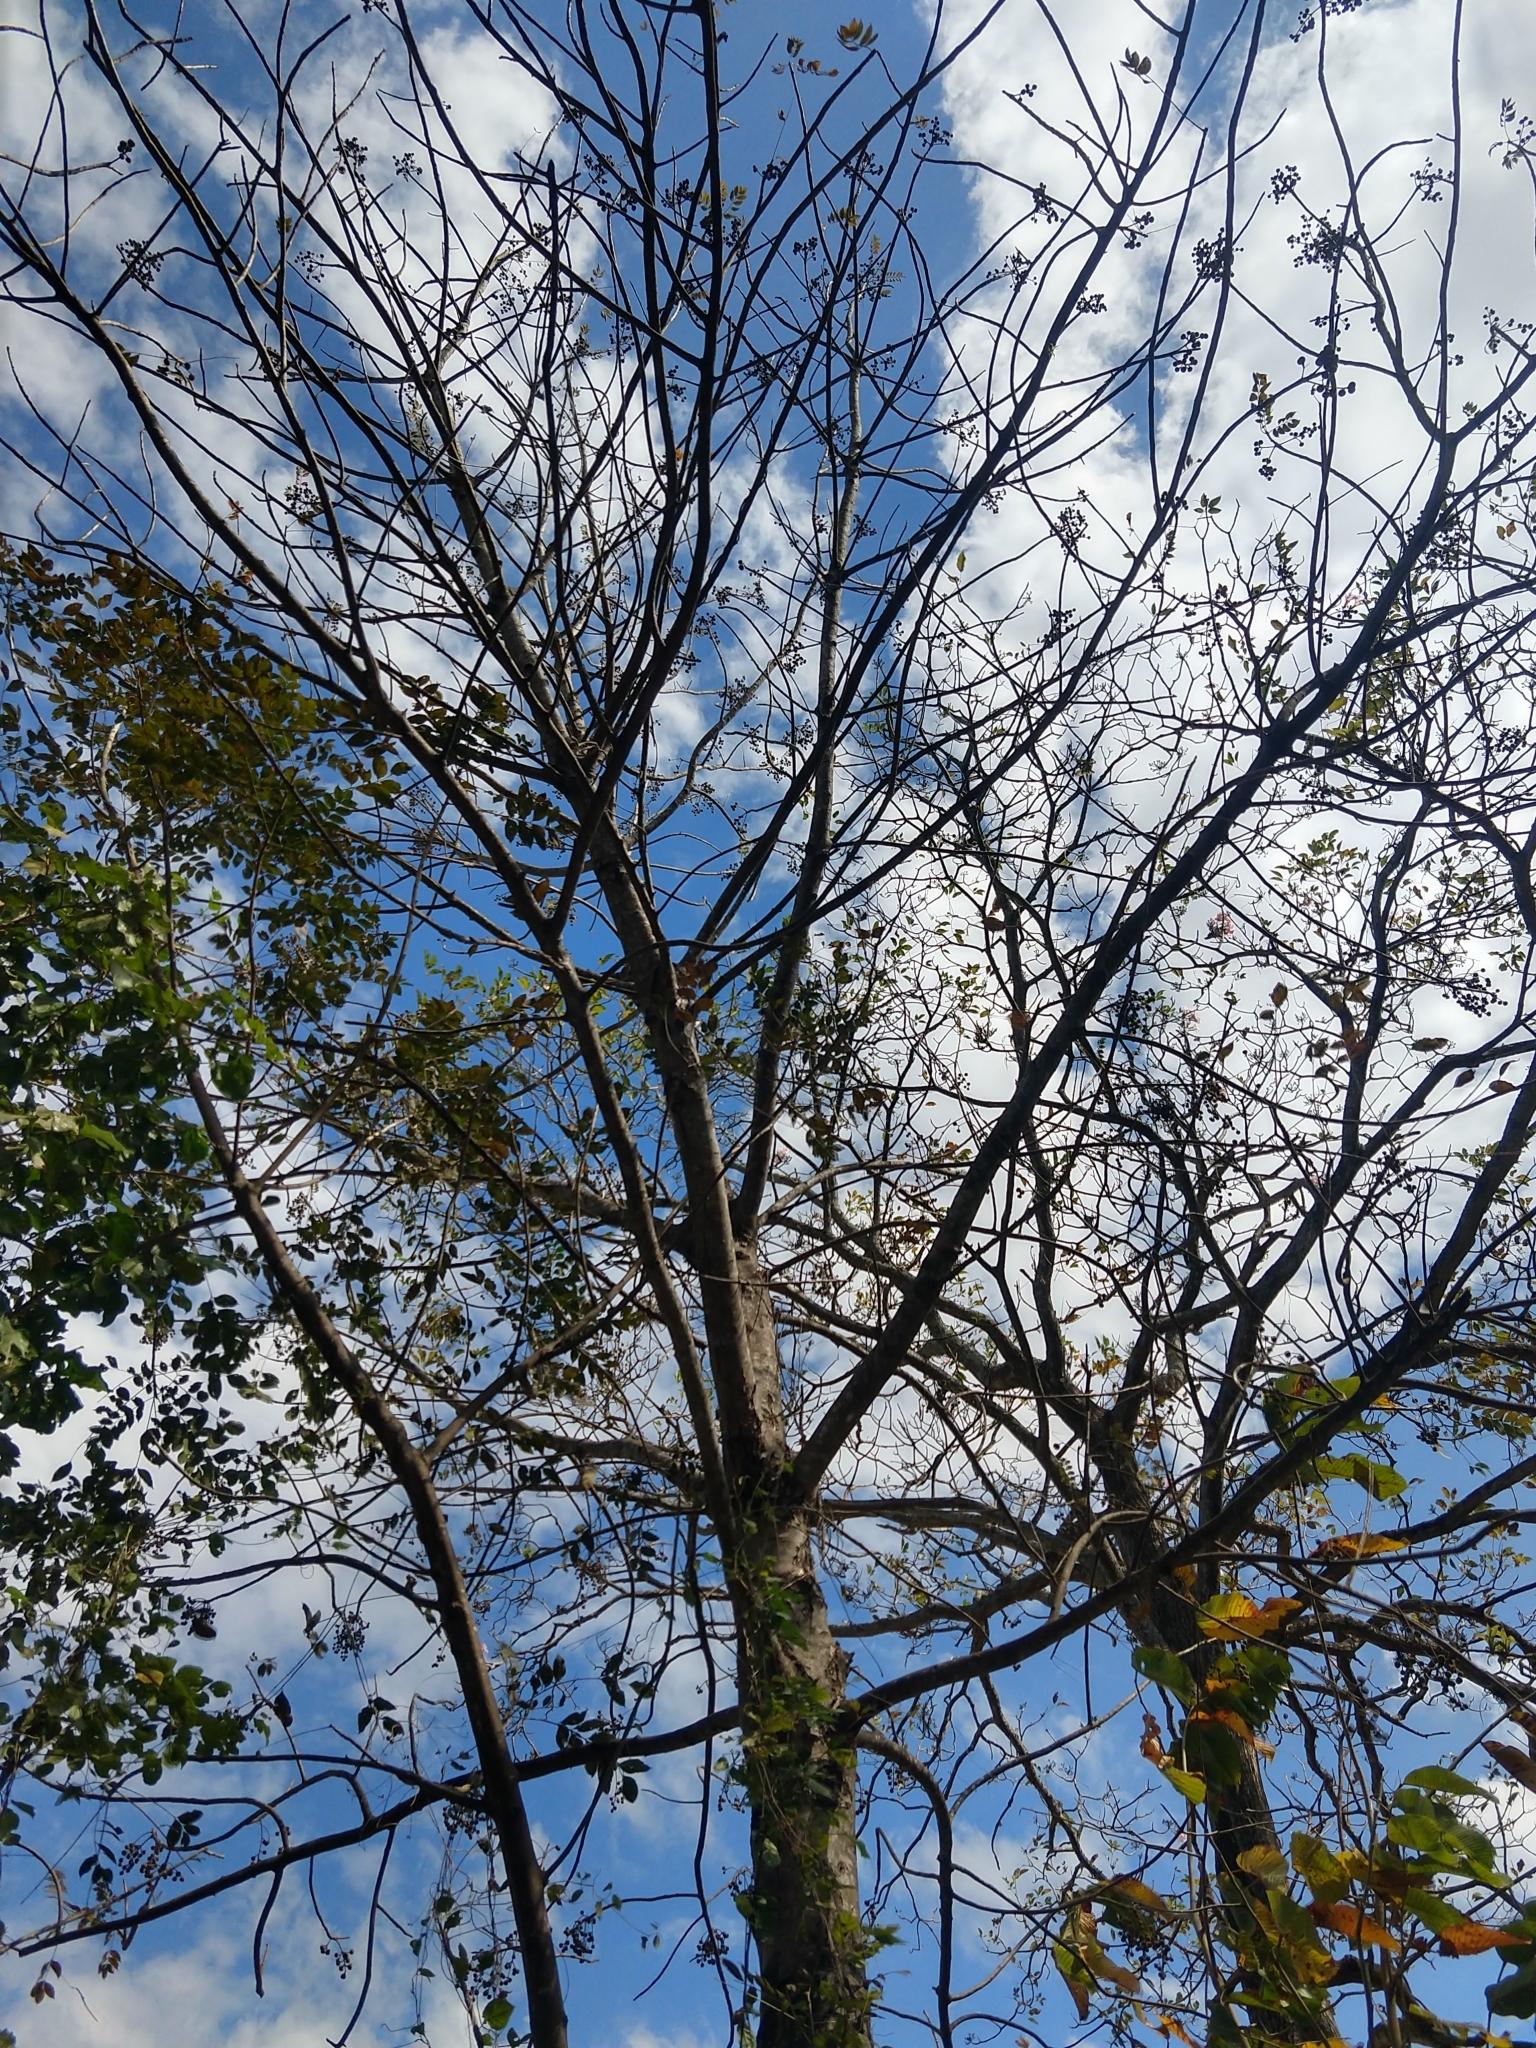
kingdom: Plantae
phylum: Tracheophyta
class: Magnoliopsida
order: Sapindales
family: Meliaceae
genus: Trichilia
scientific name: Trichilia martiana
